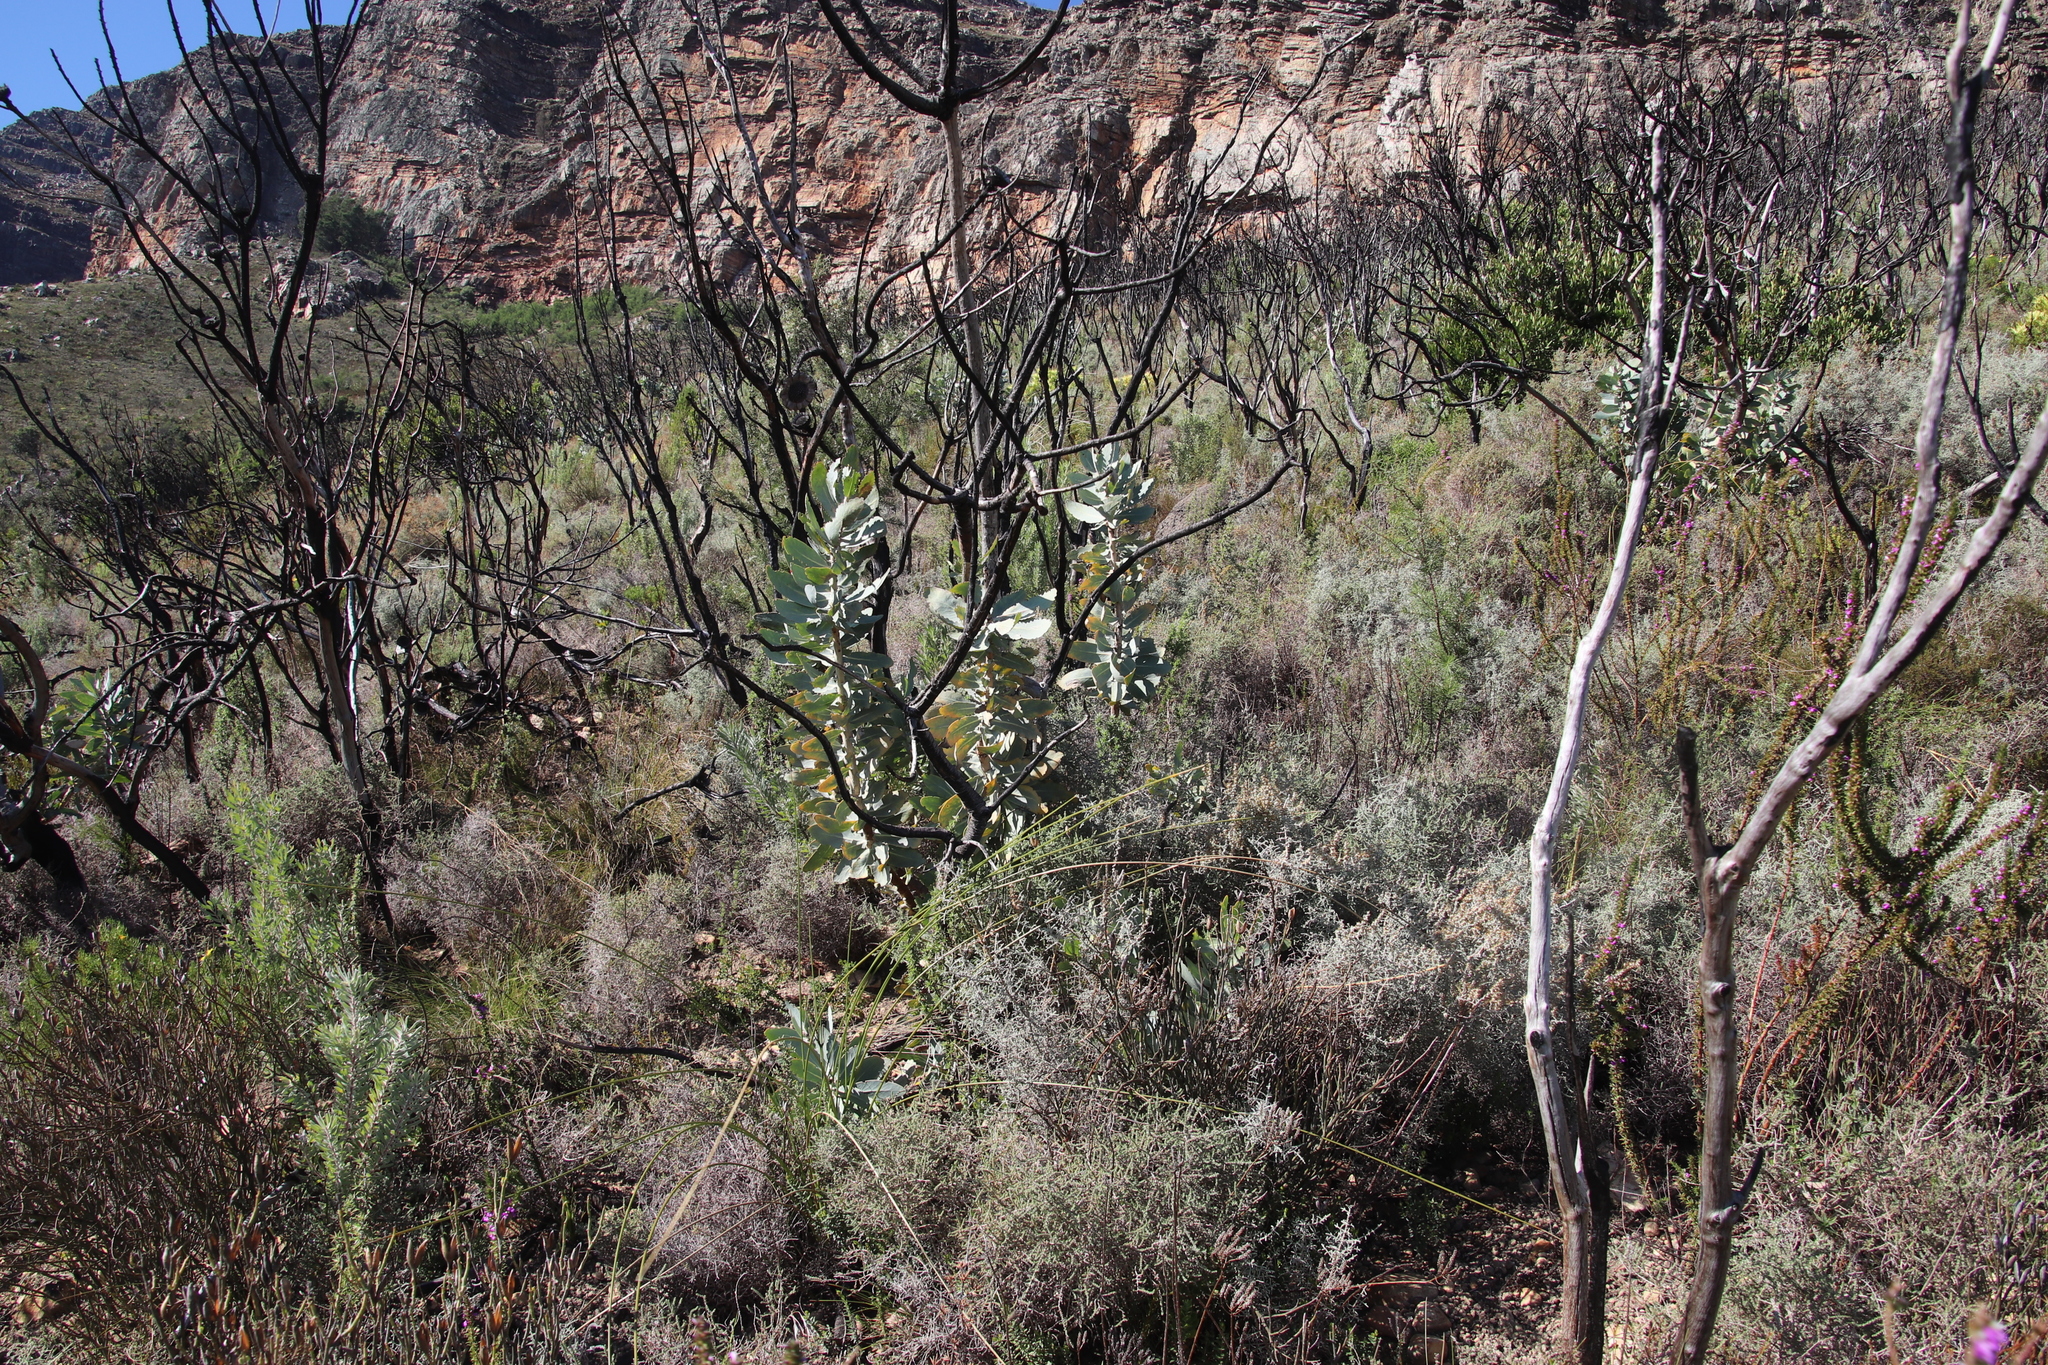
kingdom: Plantae
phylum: Tracheophyta
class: Magnoliopsida
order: Proteales
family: Proteaceae
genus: Protea
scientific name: Protea nitida
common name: Tree protea
